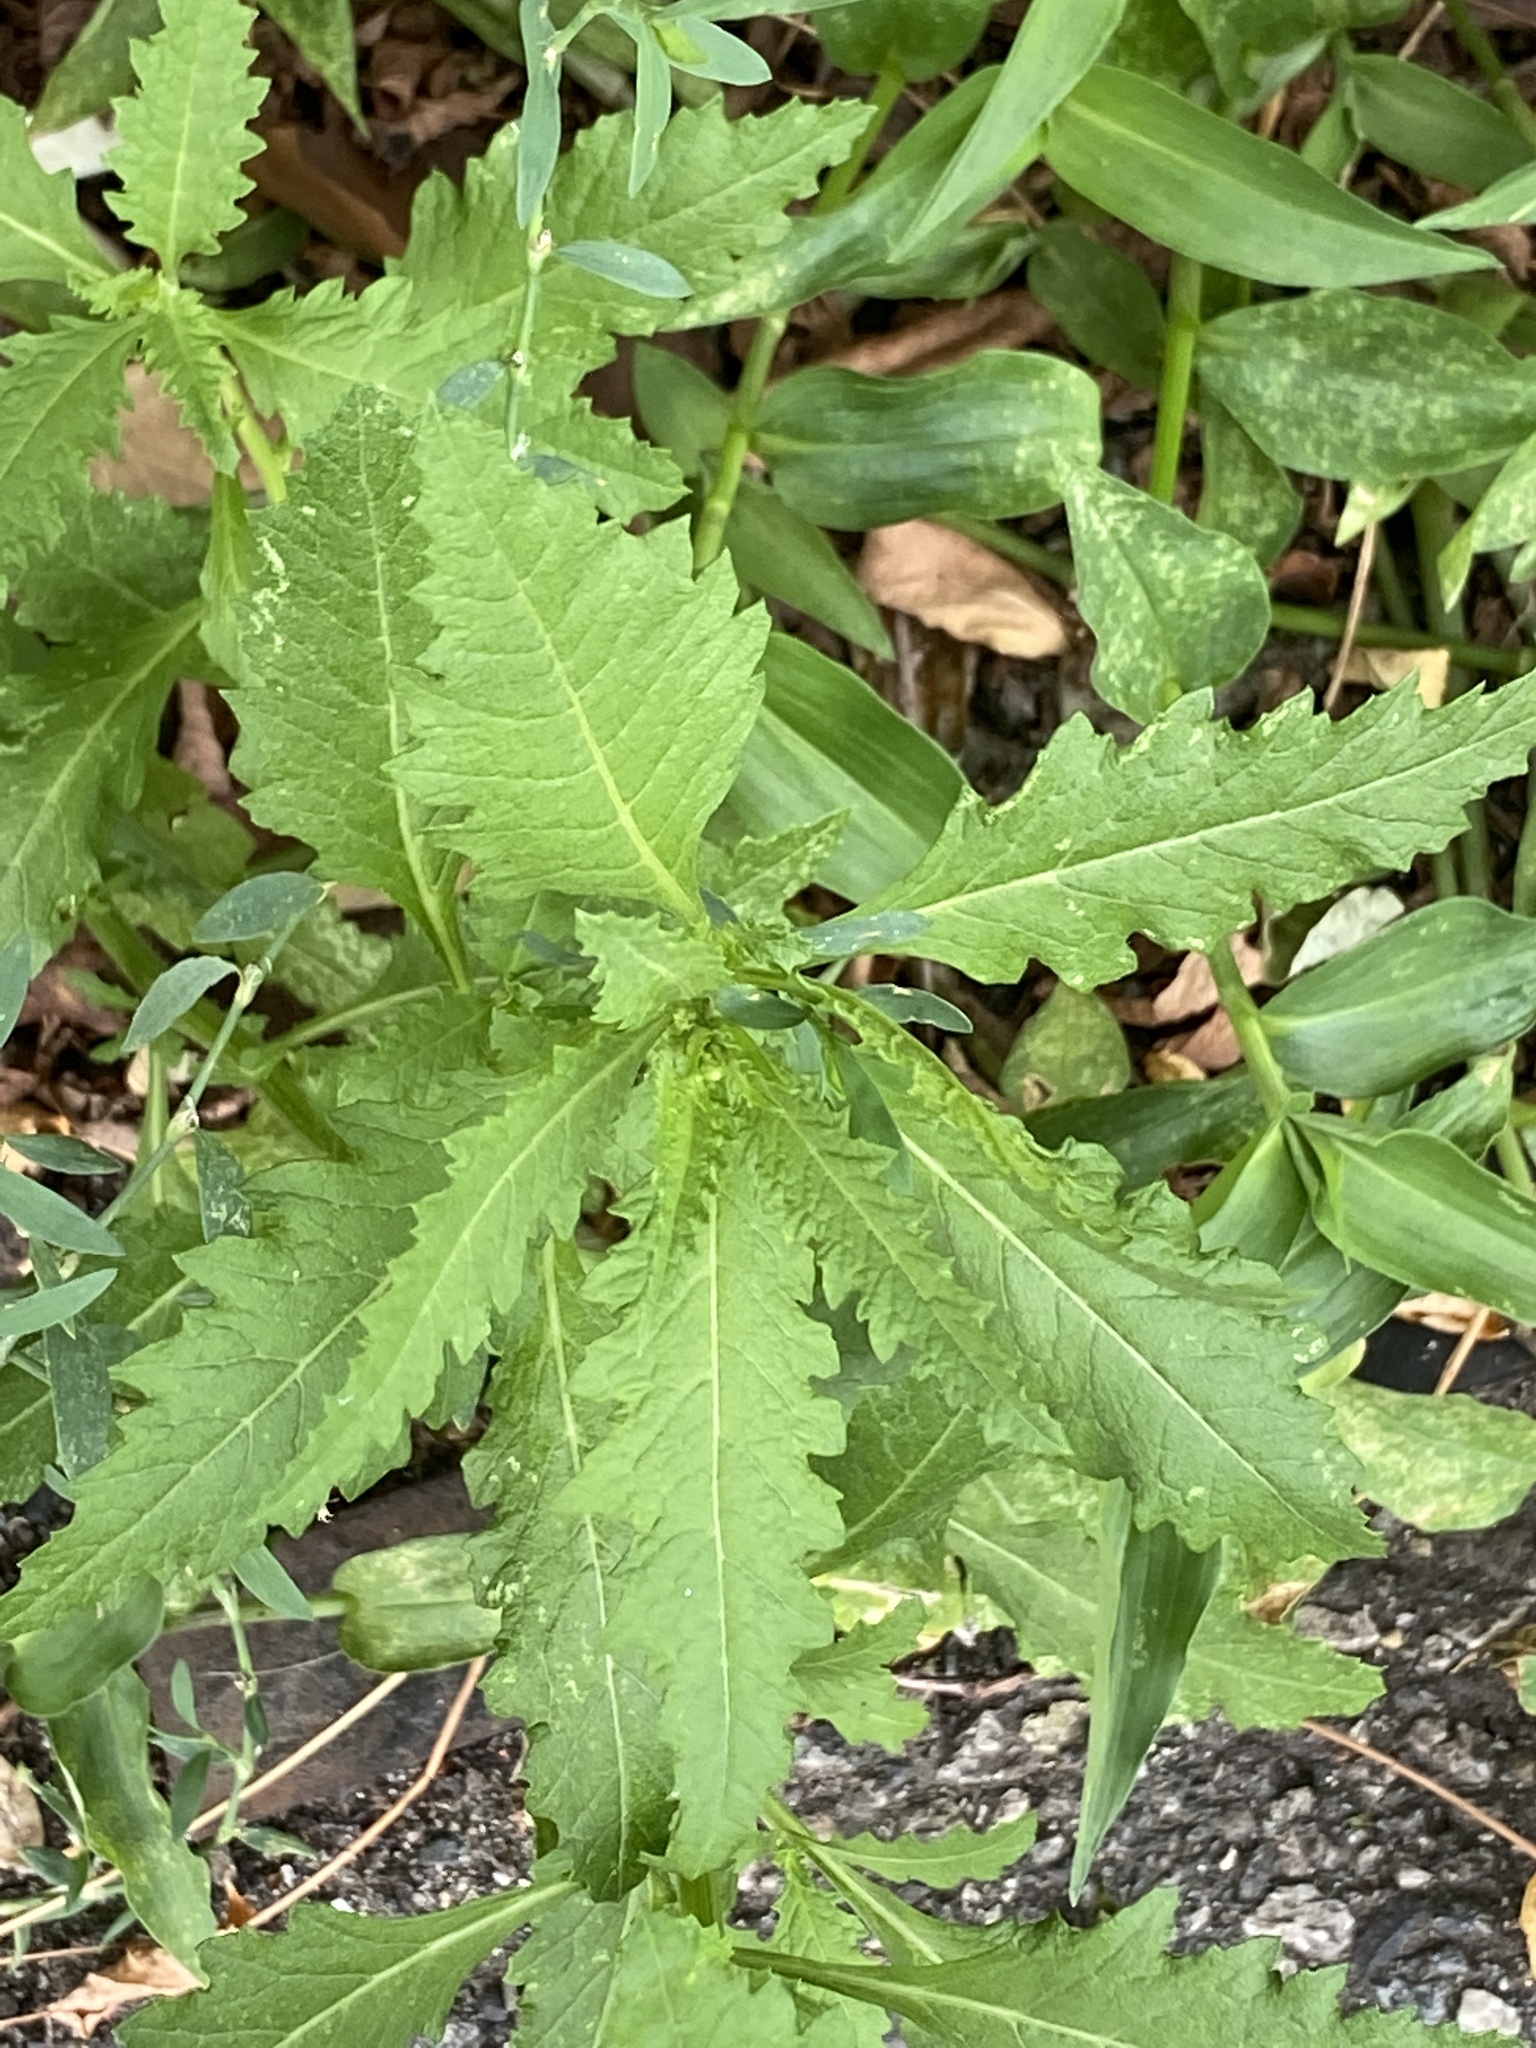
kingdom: Plantae
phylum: Tracheophyta
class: Magnoliopsida
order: Caryophyllales
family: Amaranthaceae
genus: Dysphania
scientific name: Dysphania ambrosioides
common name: Wormseed
